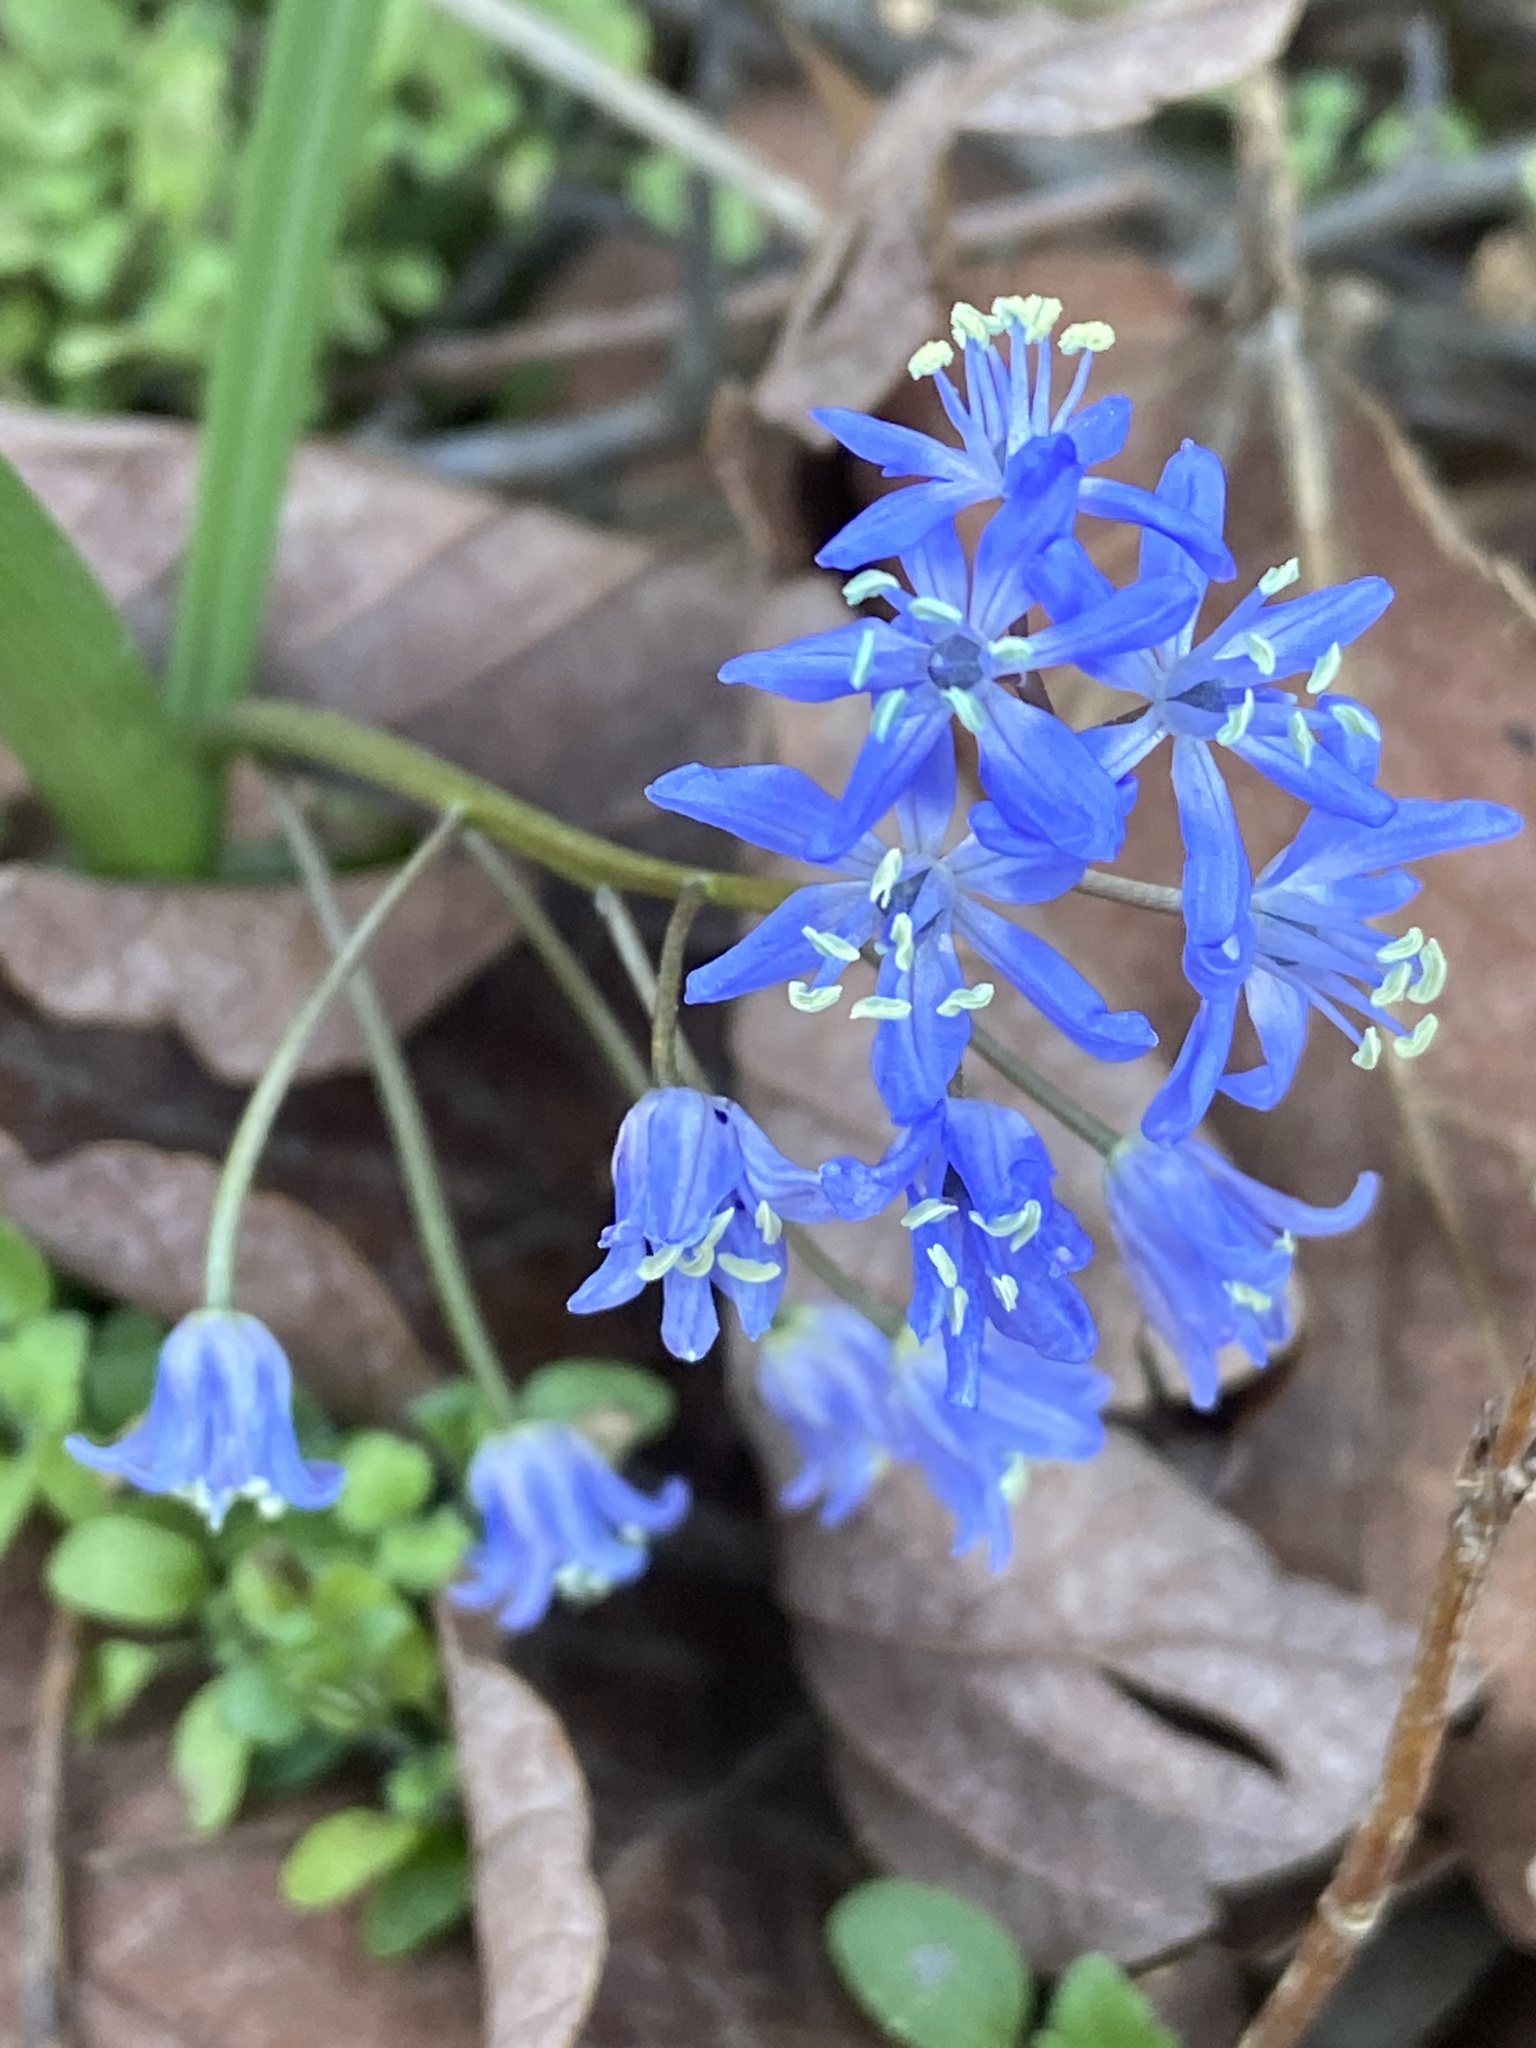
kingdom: Plantae
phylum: Tracheophyta
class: Liliopsida
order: Asparagales
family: Asparagaceae
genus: Scilla
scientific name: Scilla bifolia
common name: Alpine squill
